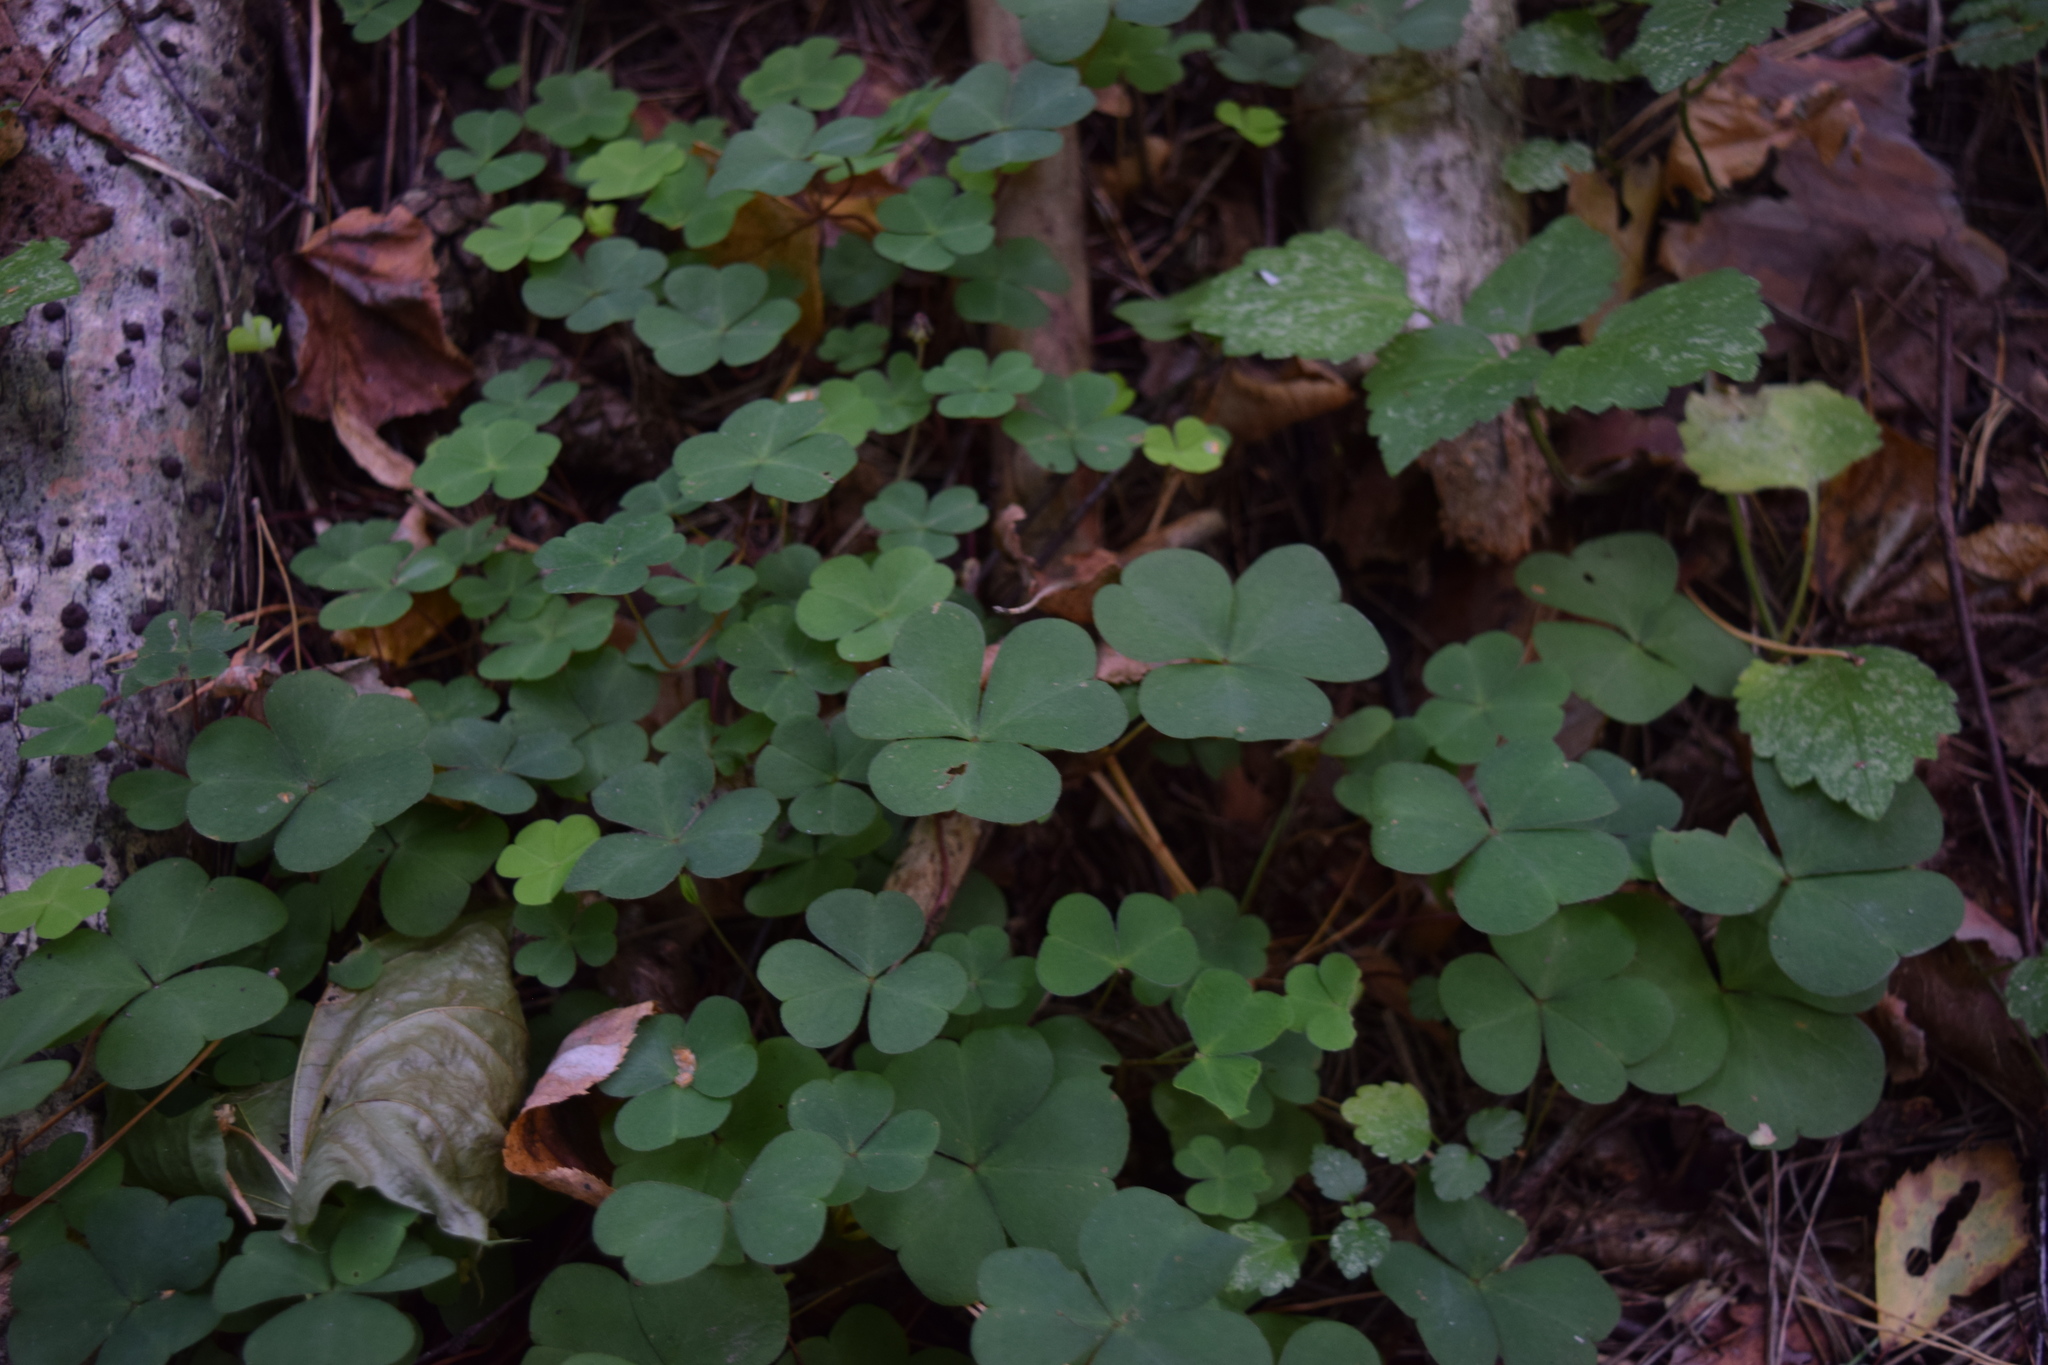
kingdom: Plantae
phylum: Tracheophyta
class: Magnoliopsida
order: Oxalidales
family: Oxalidaceae
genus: Oxalis
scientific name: Oxalis acetosella
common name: Wood-sorrel
